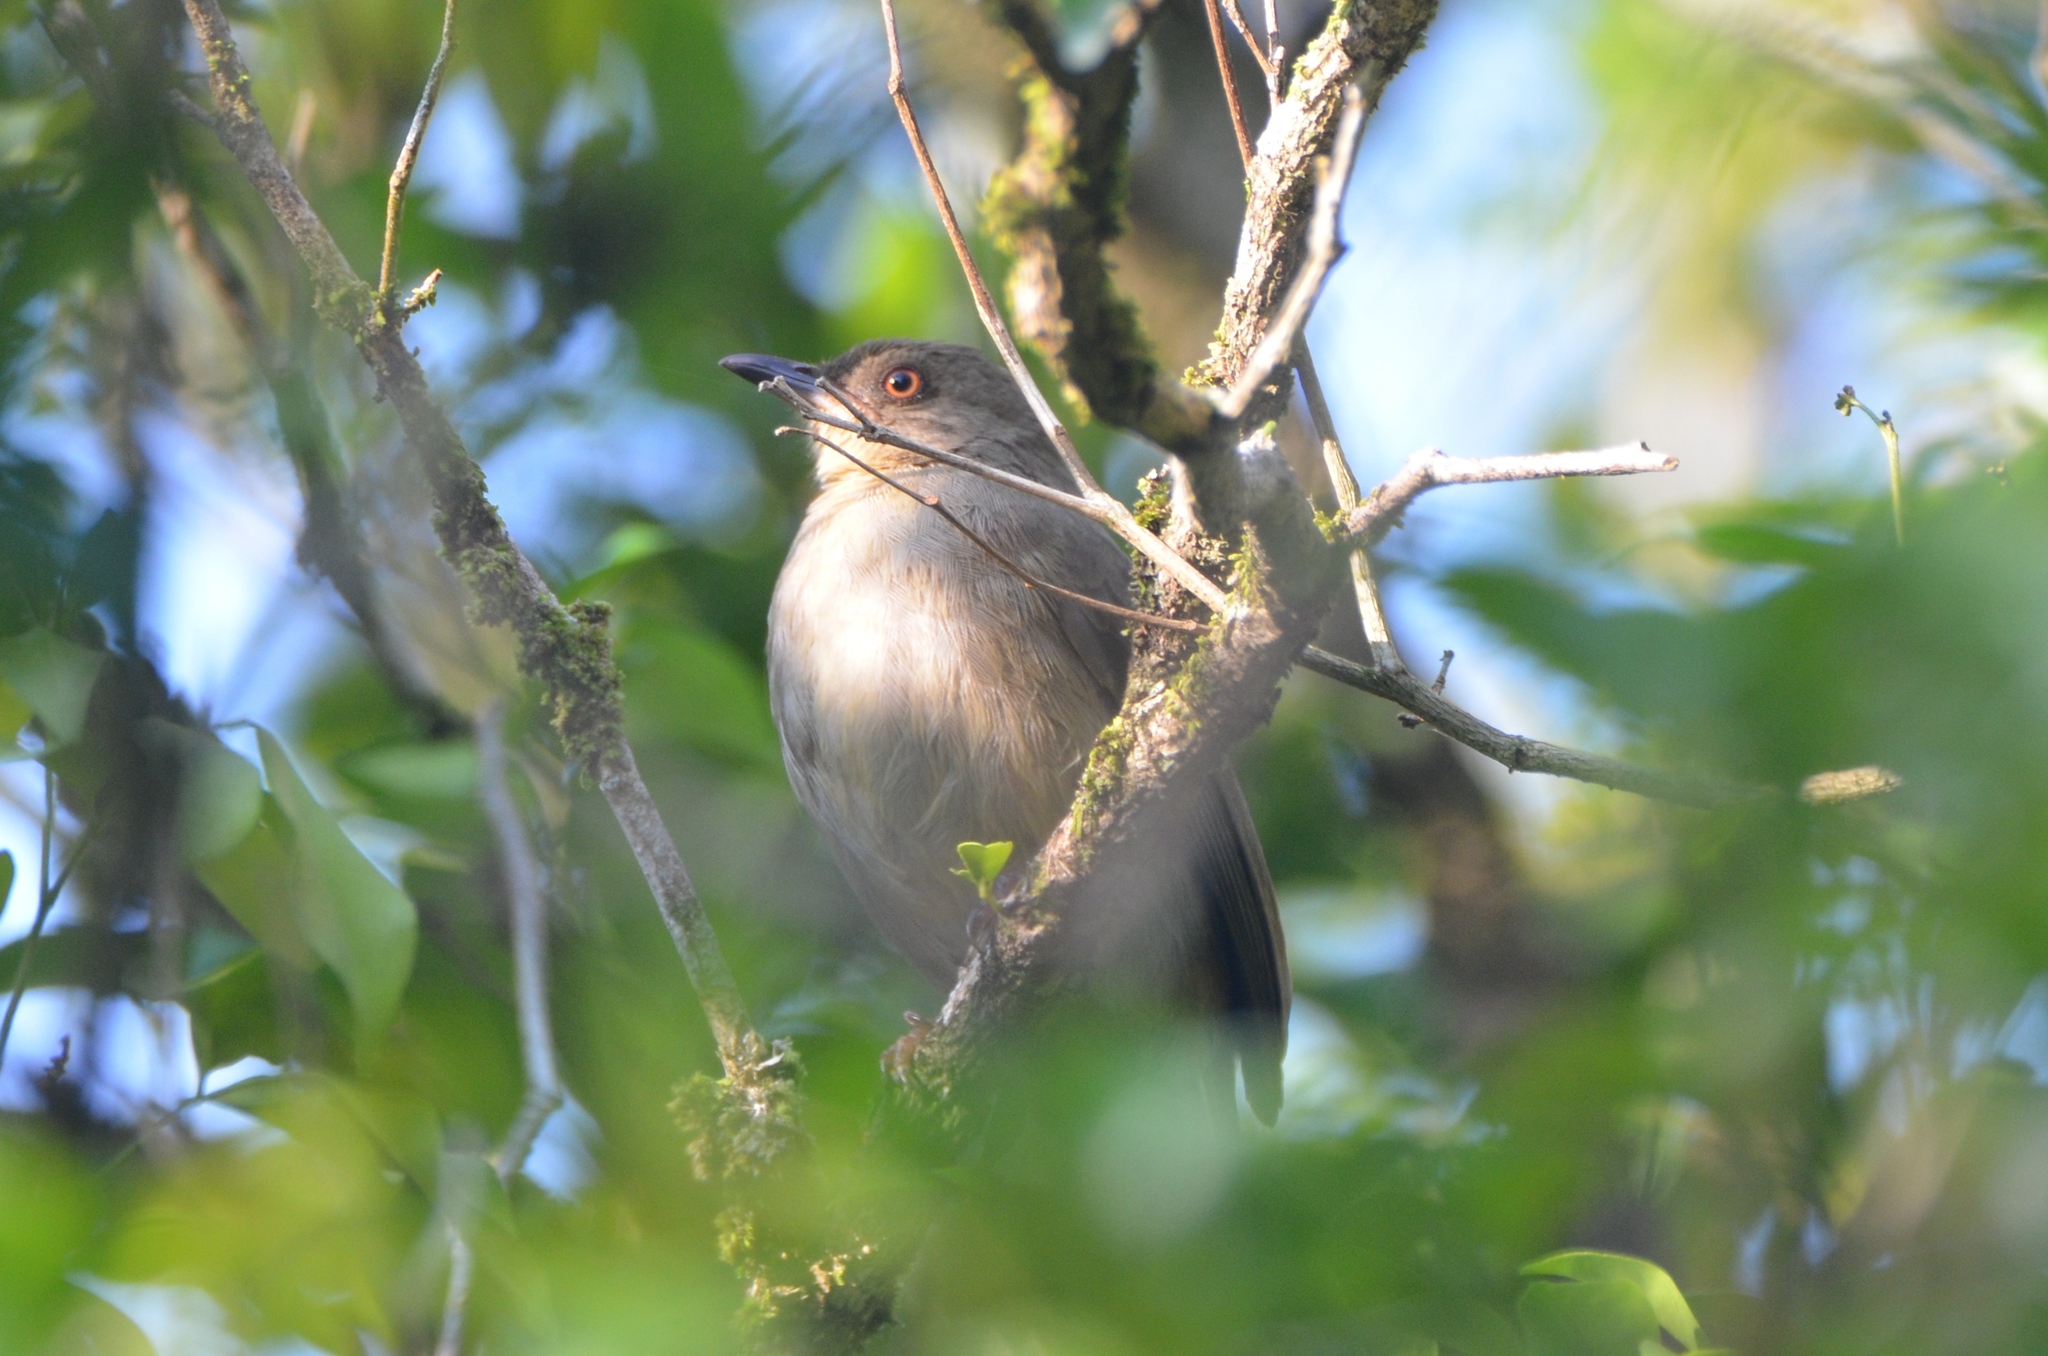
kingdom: Animalia
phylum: Chordata
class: Aves
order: Passeriformes
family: Pycnonotidae
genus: Pycnonotus
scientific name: Pycnonotus brunneus
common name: Asian red-eyed bulbul
